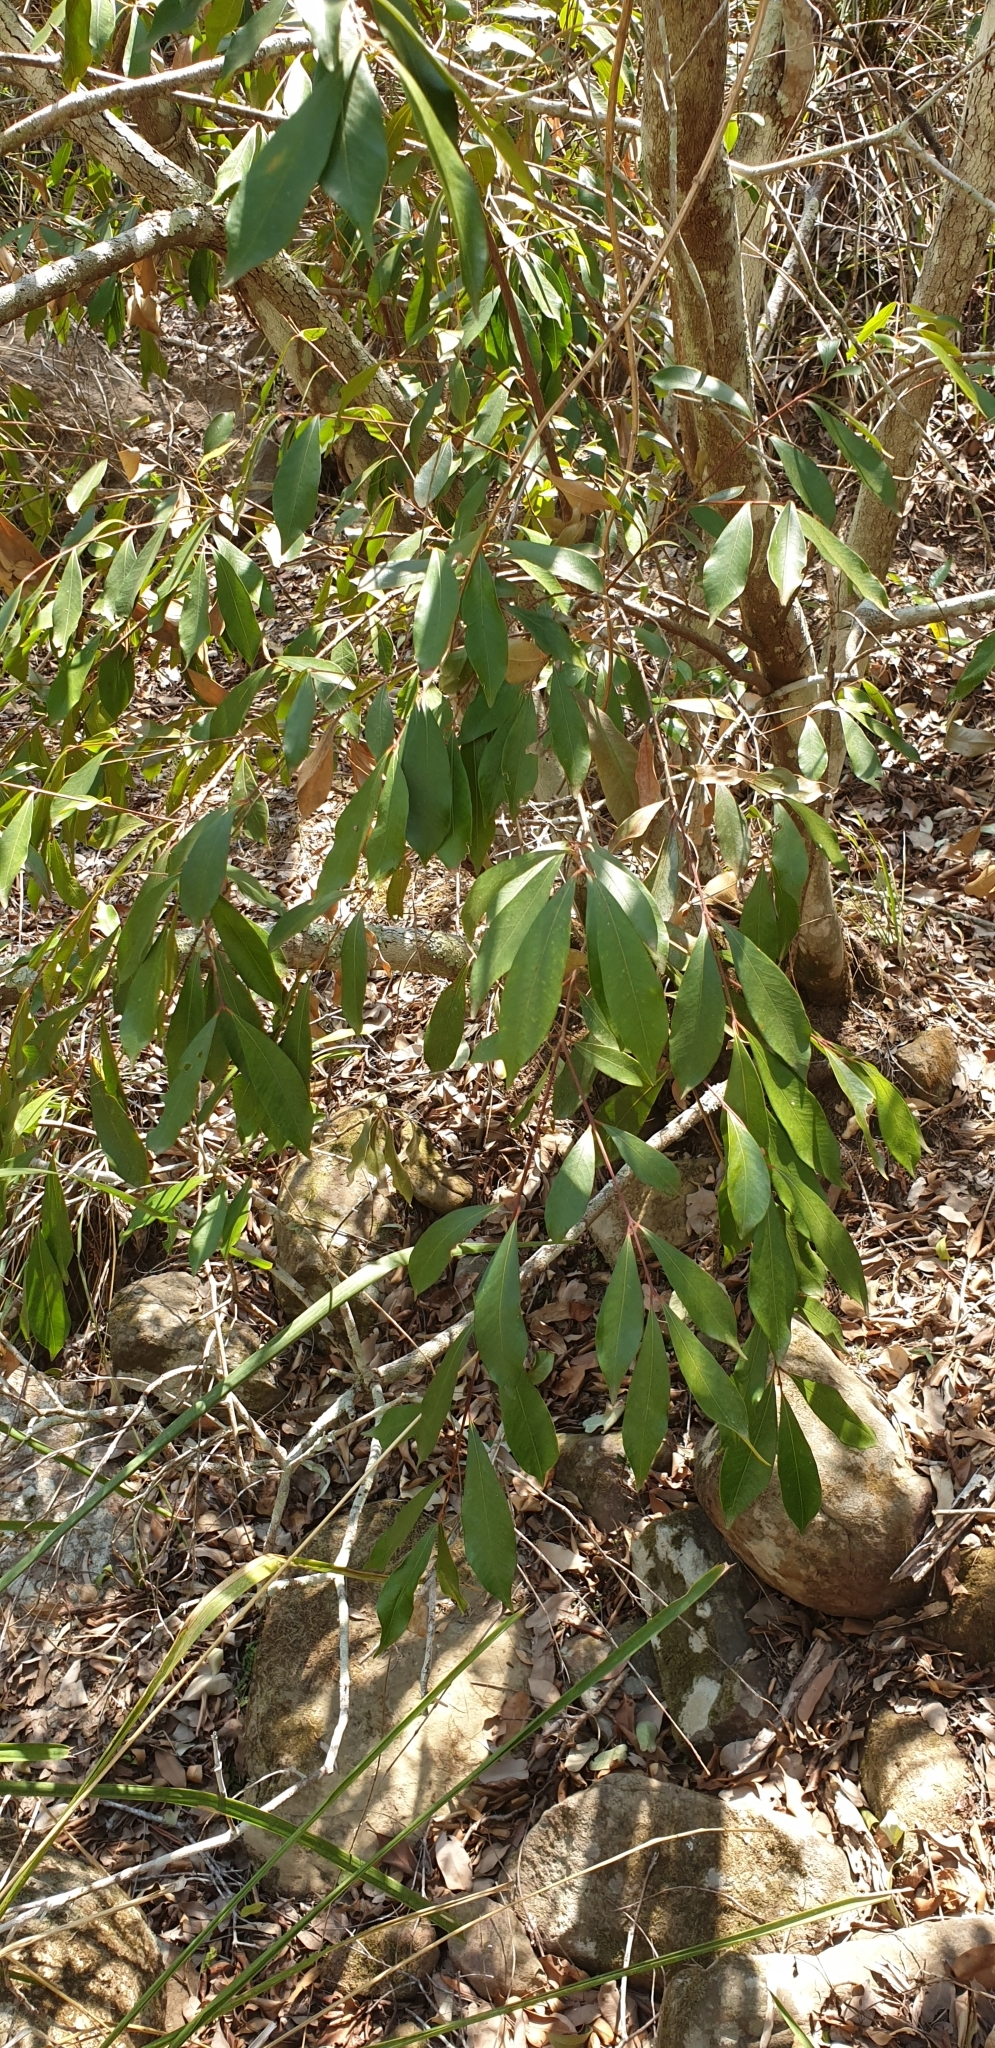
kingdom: Plantae
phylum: Tracheophyta
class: Magnoliopsida
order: Myrtales
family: Myrtaceae
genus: Syzygium
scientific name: Syzygium smithii
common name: Lilly-pilly
